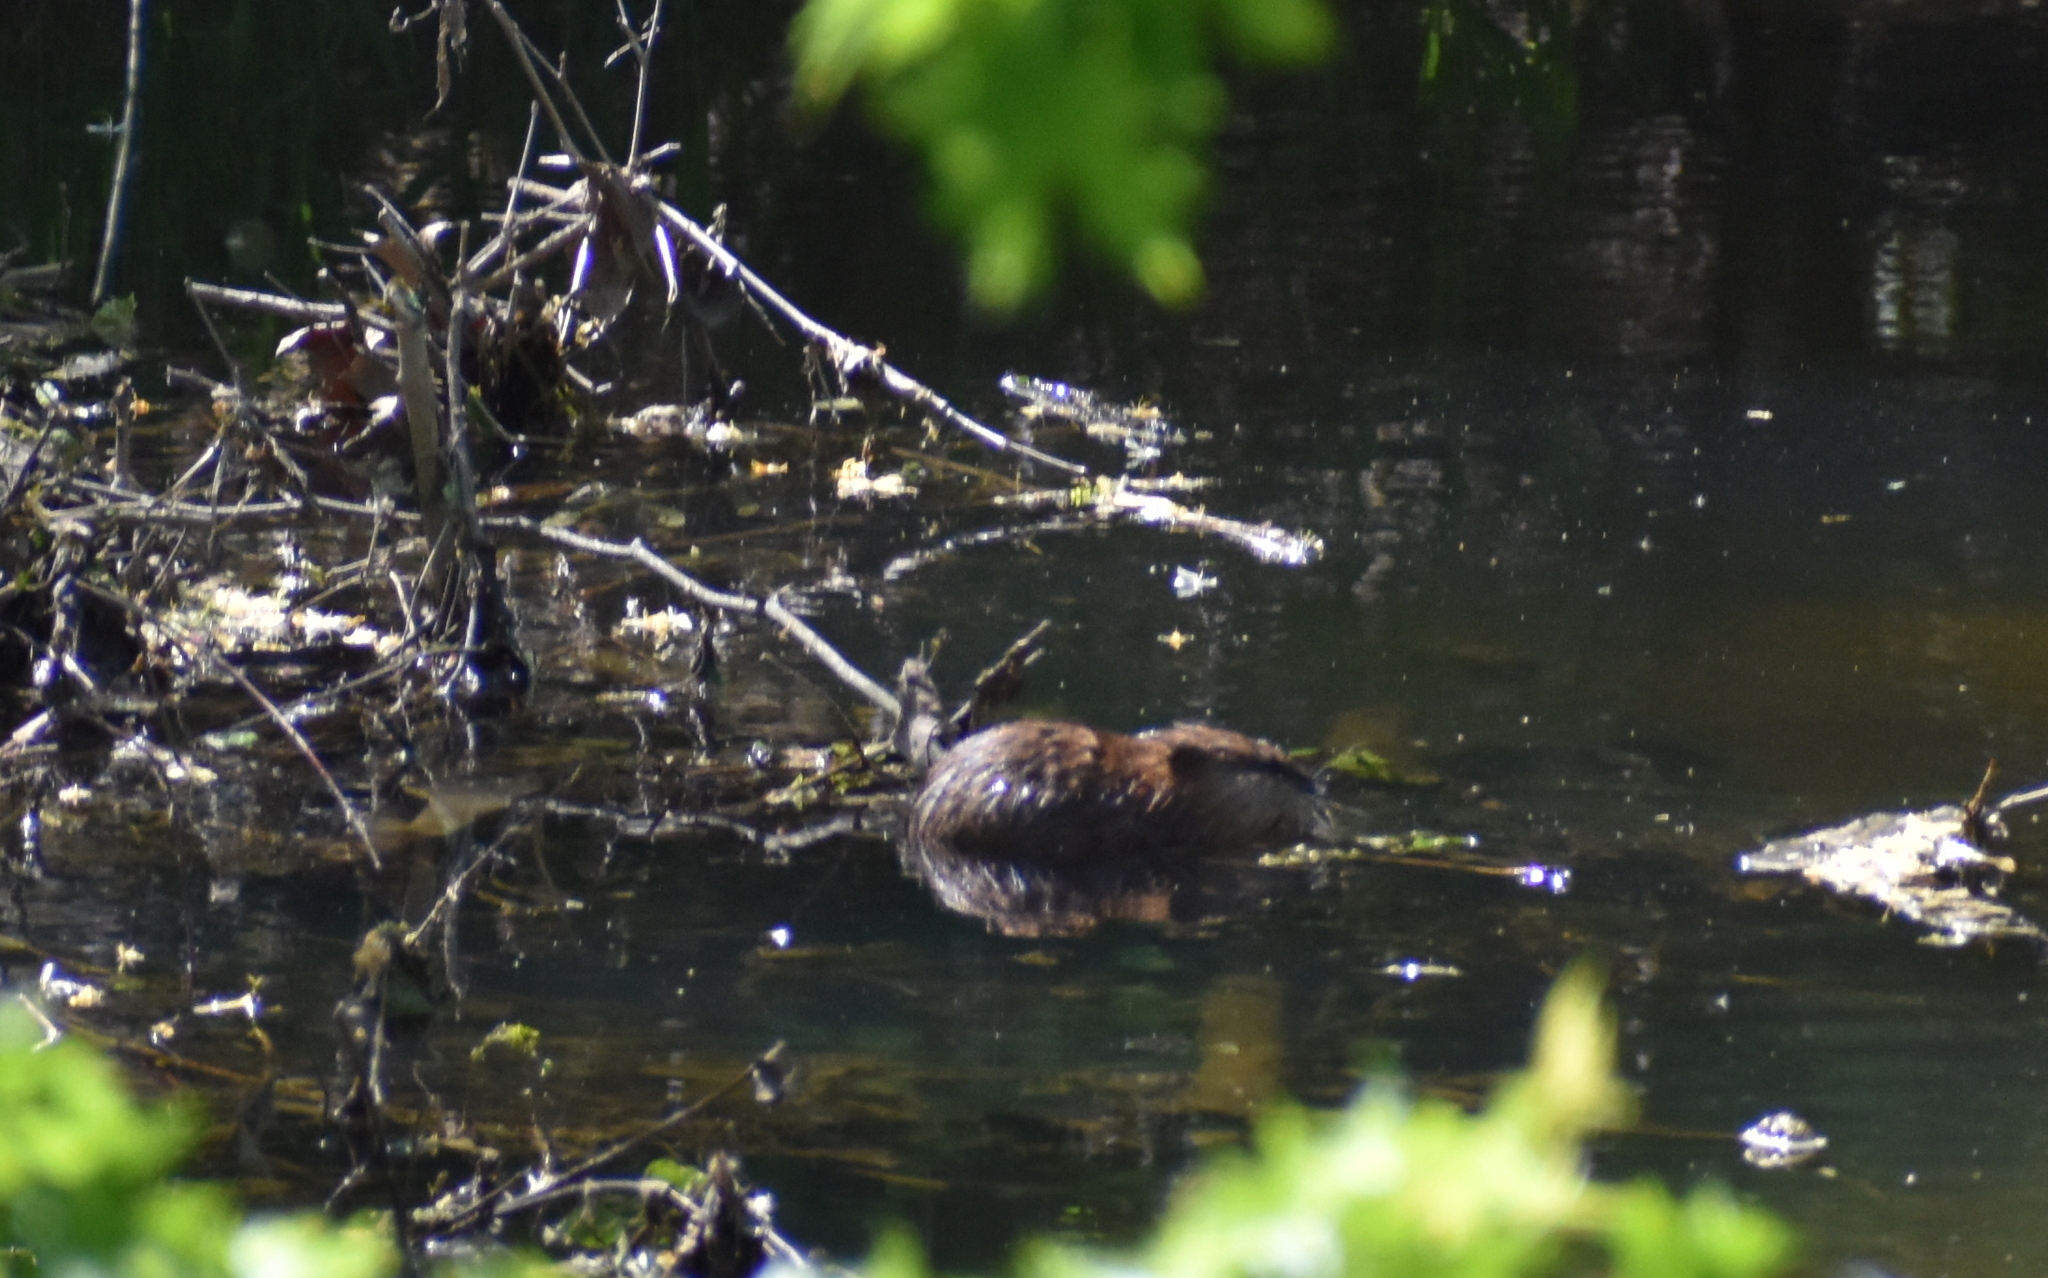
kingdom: Animalia
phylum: Chordata
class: Mammalia
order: Rodentia
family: Cricetidae
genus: Ondatra
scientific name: Ondatra zibethicus
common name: Muskrat
